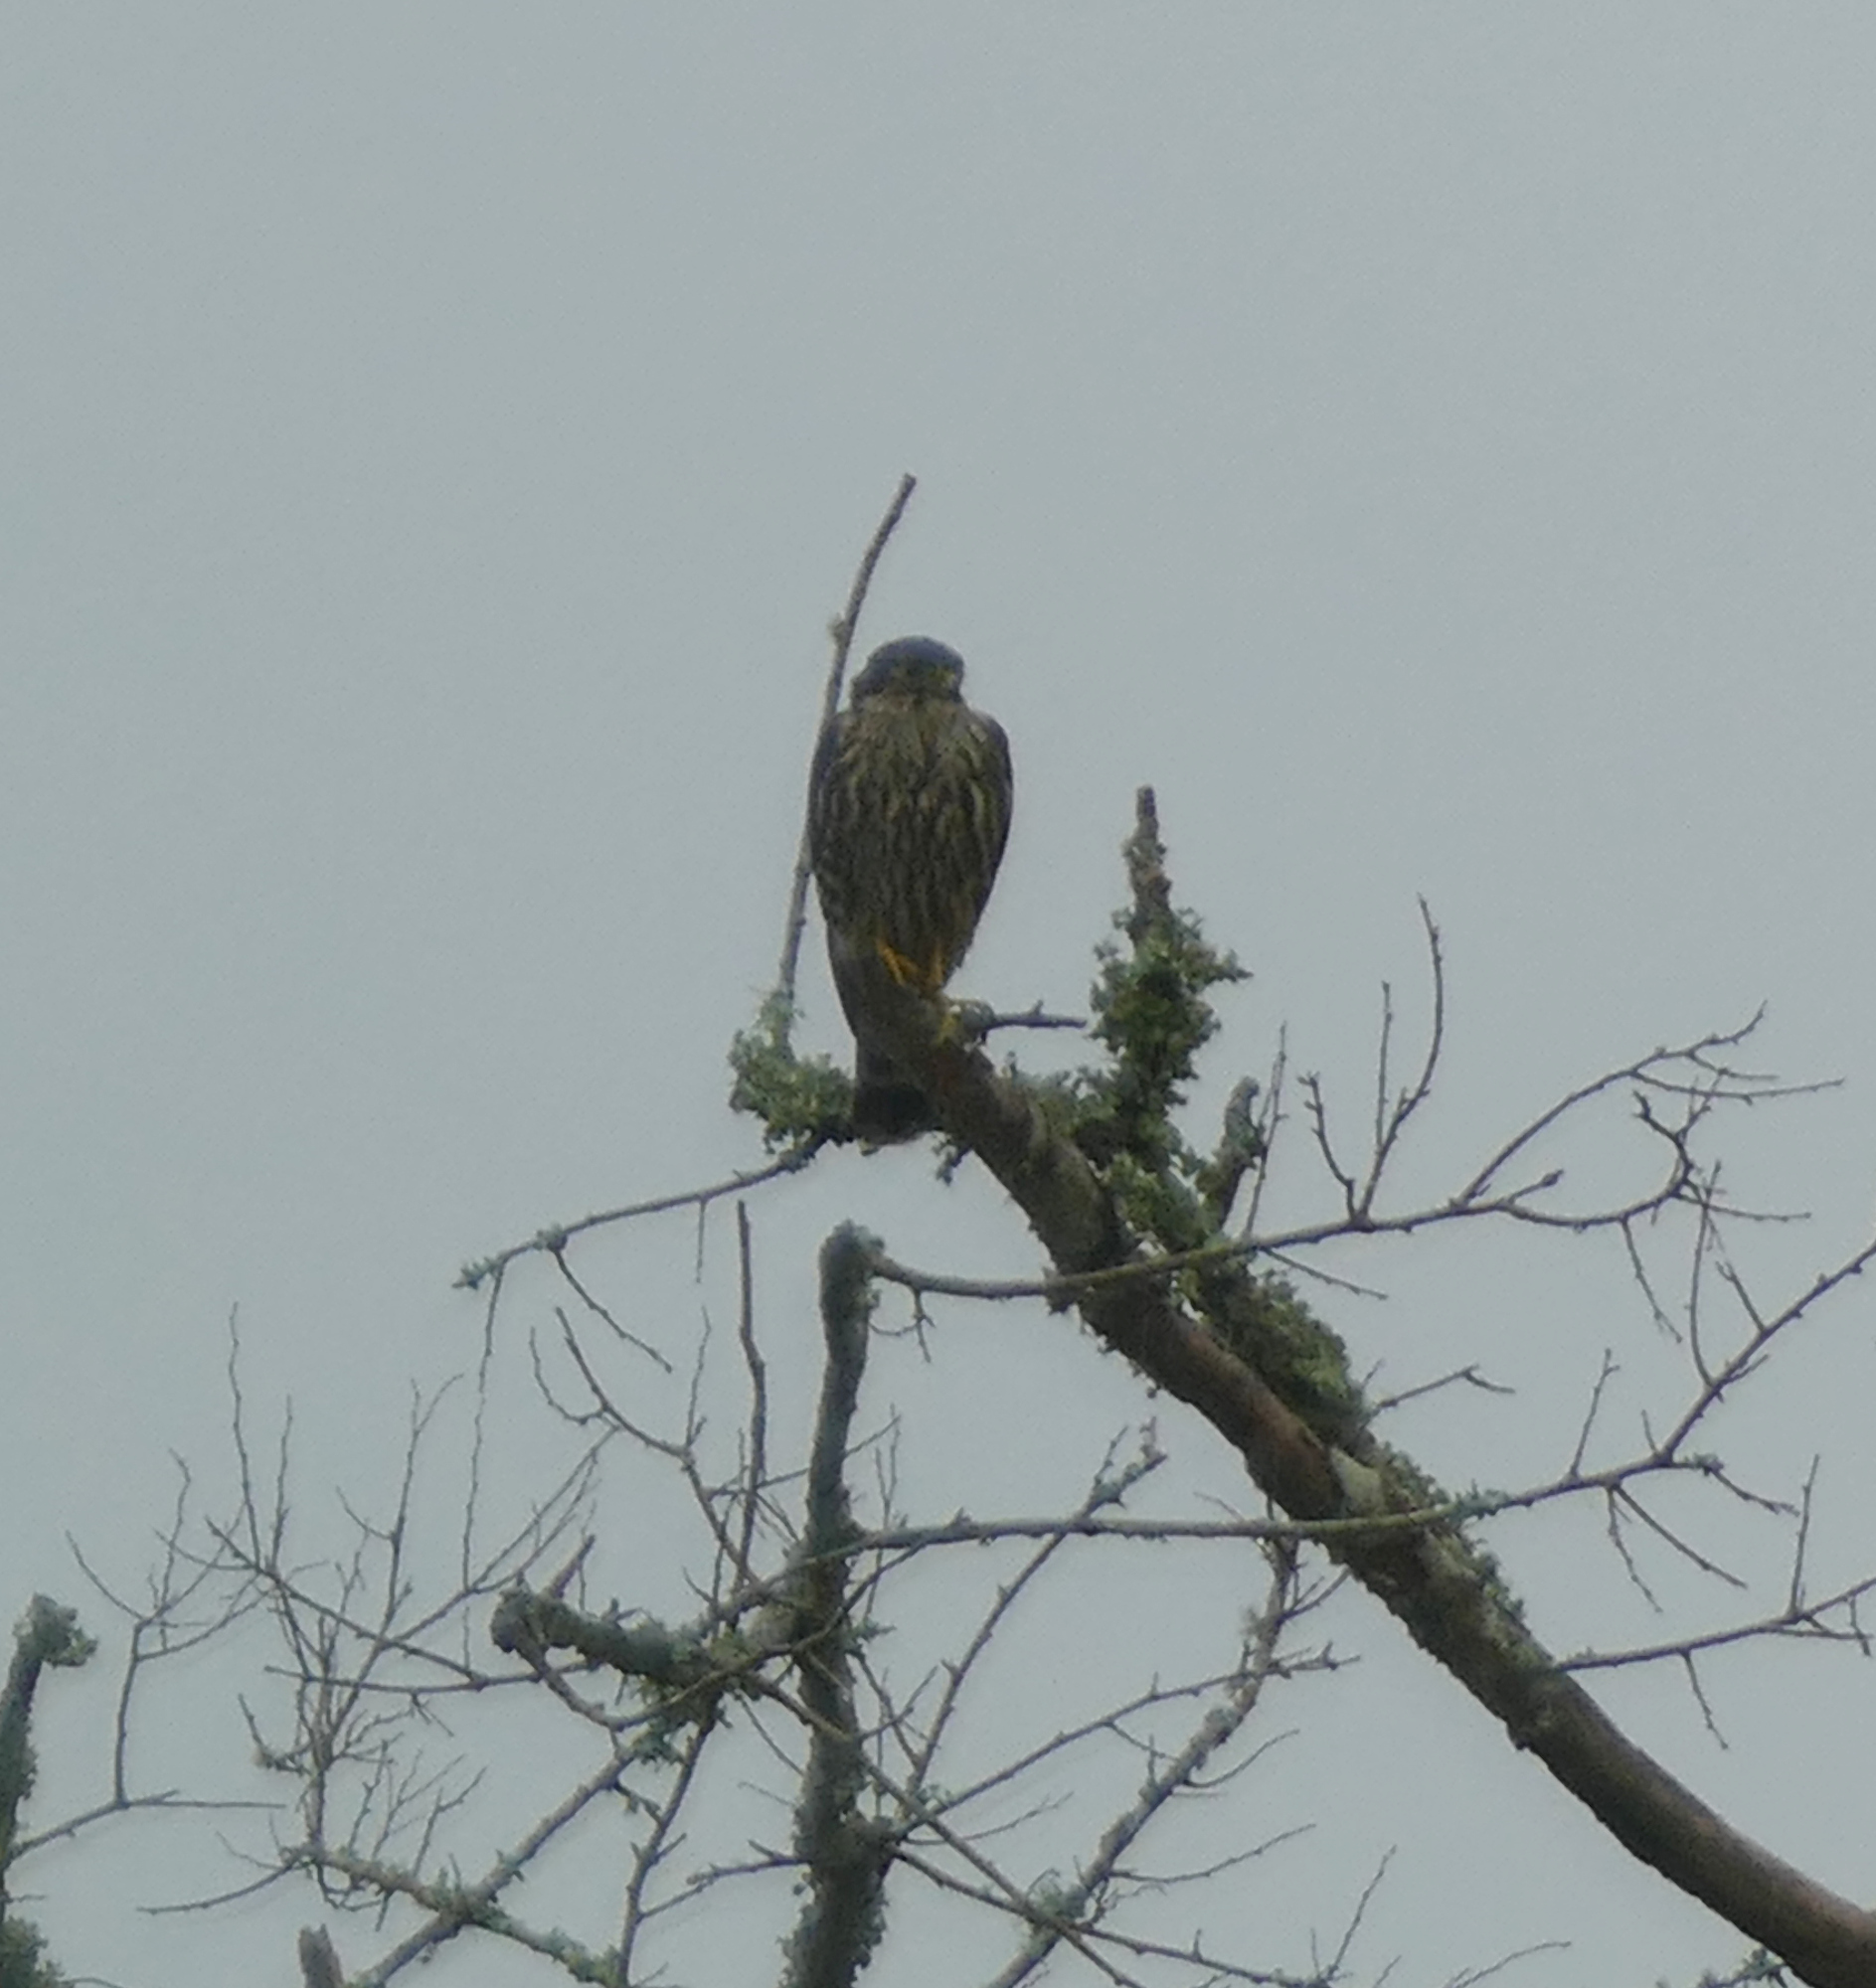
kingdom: Animalia
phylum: Chordata
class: Aves
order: Falconiformes
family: Falconidae
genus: Falco
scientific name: Falco columbarius
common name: Merlin
